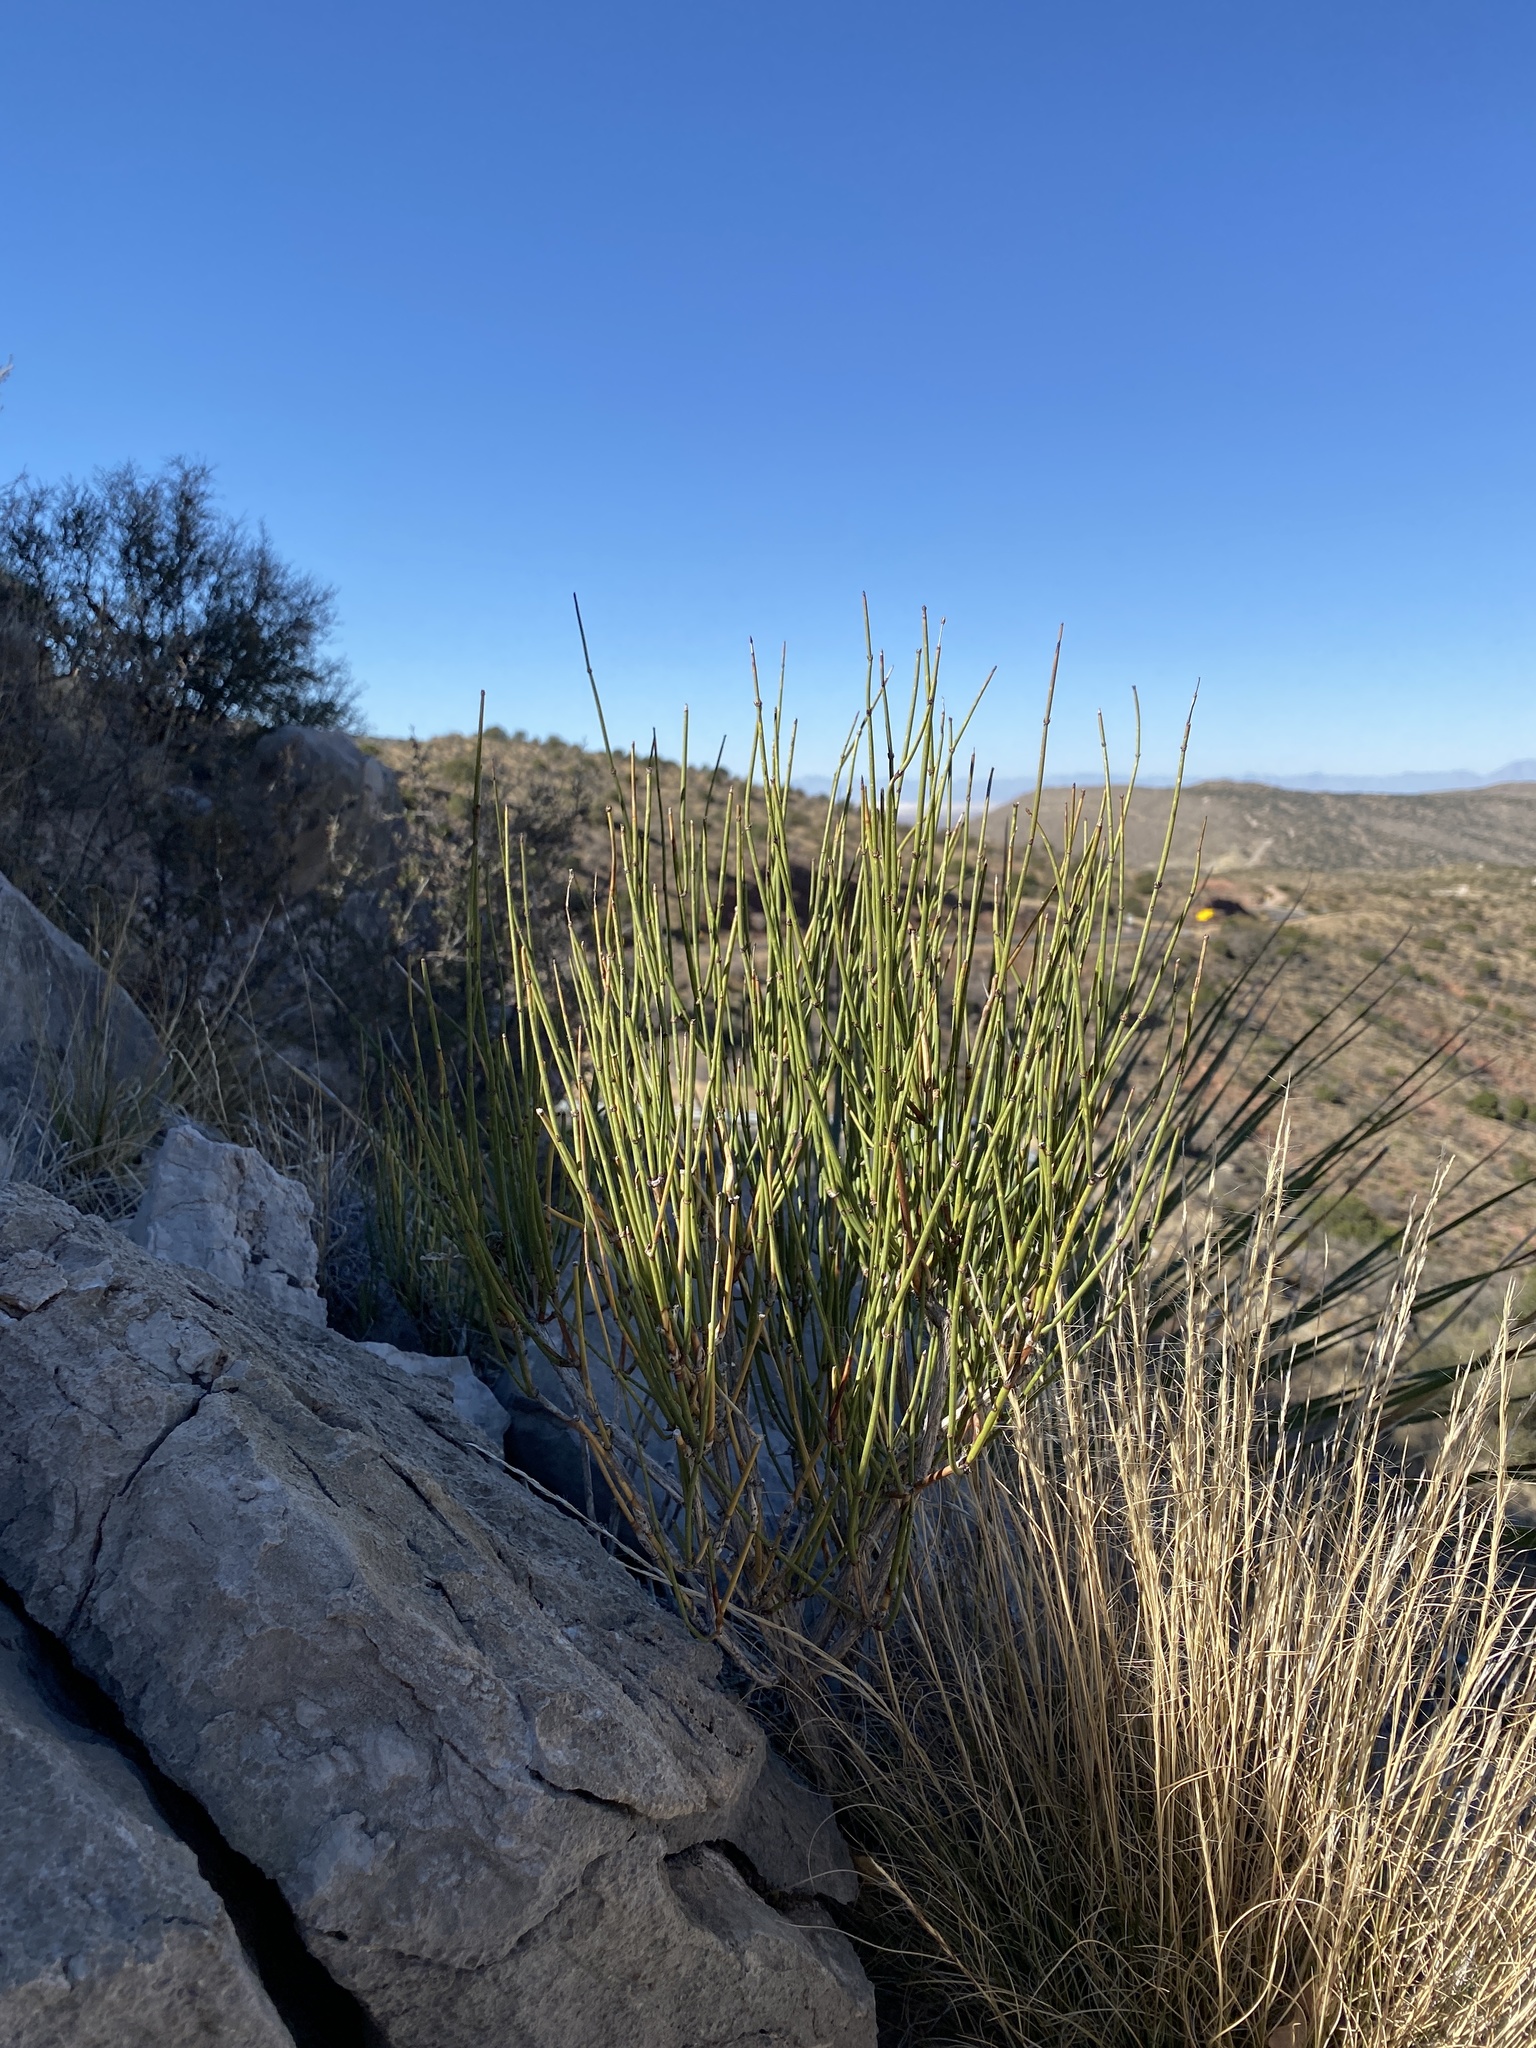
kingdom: Plantae
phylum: Tracheophyta
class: Gnetopsida
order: Ephedrales
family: Ephedraceae
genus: Ephedra
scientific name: Ephedra trifurca
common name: Mexican-tea
